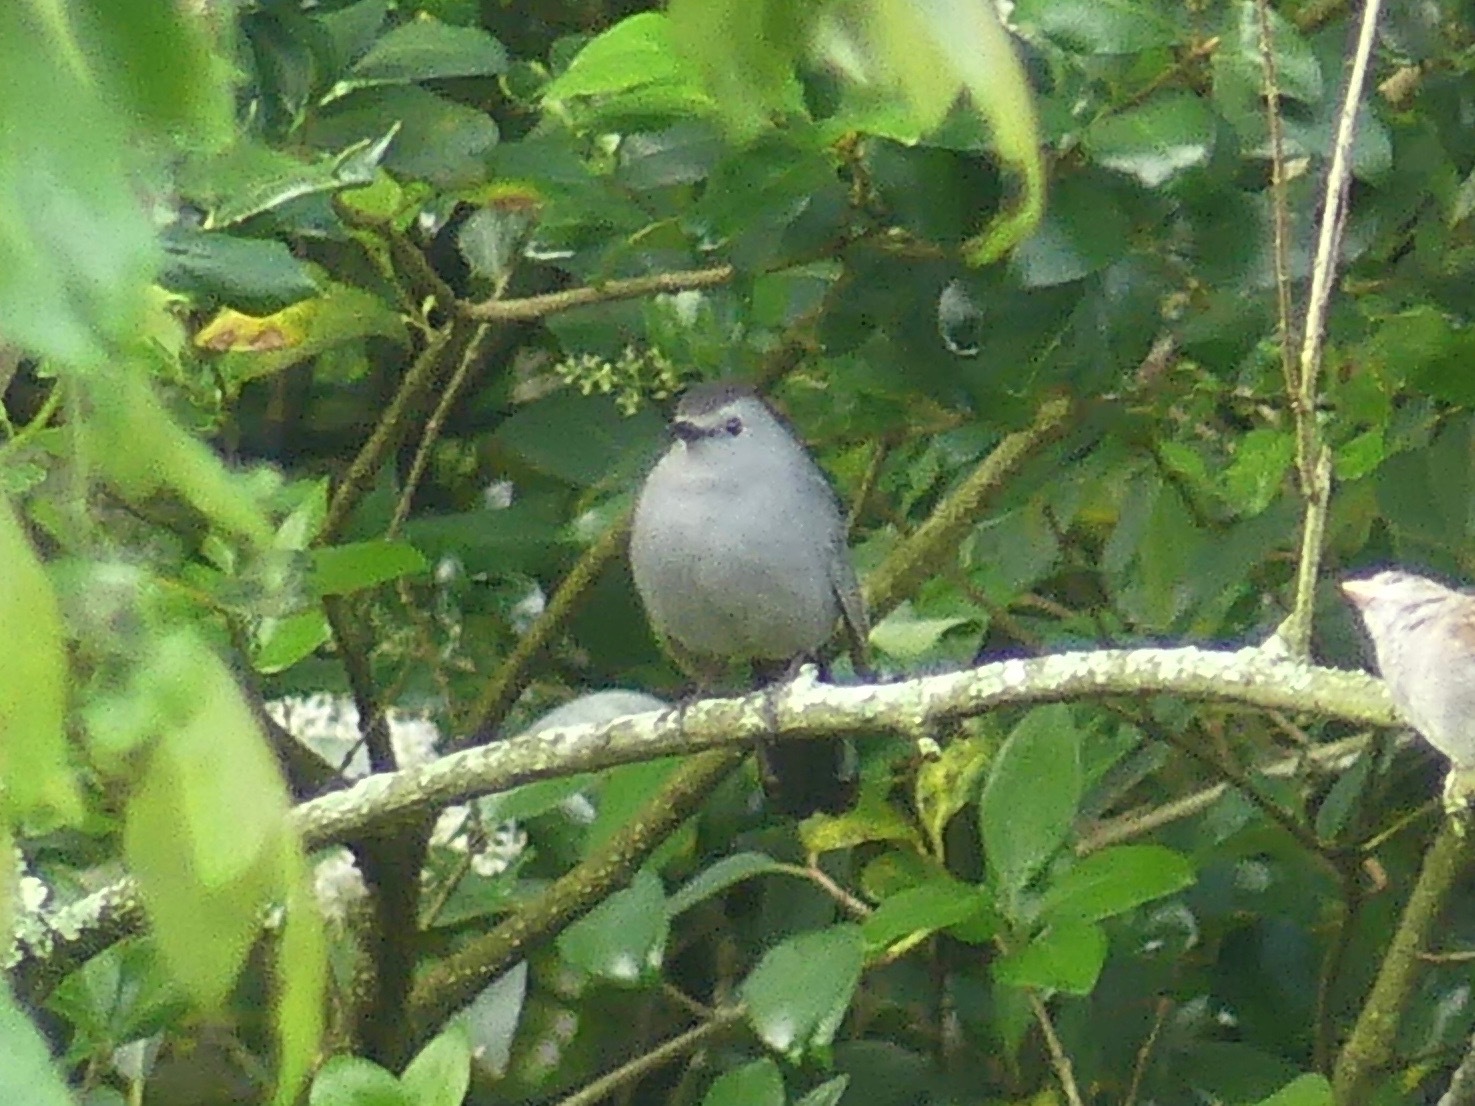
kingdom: Animalia
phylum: Chordata
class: Aves
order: Passeriformes
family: Mimidae
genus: Dumetella
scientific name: Dumetella carolinensis
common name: Gray catbird
